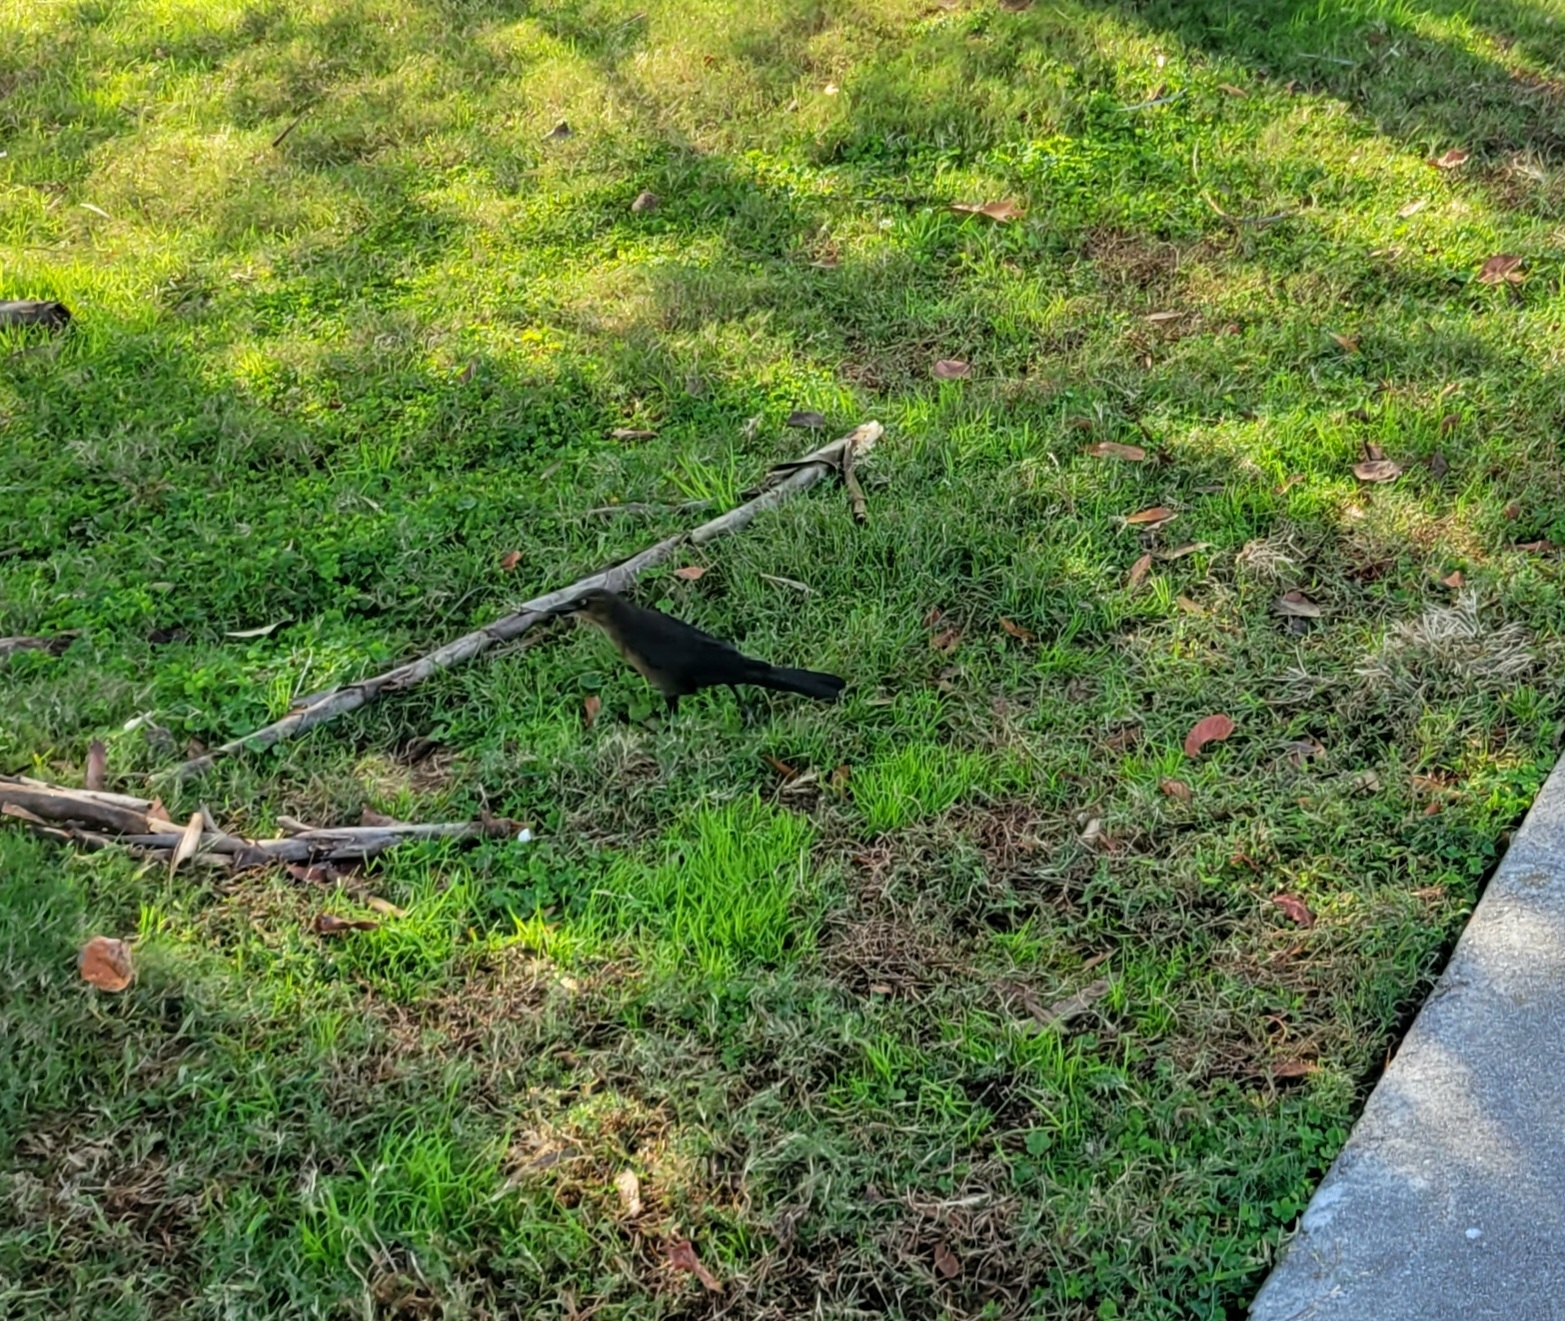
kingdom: Animalia
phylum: Chordata
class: Aves
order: Passeriformes
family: Icteridae
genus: Quiscalus
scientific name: Quiscalus major
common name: Boat-tailed grackle
